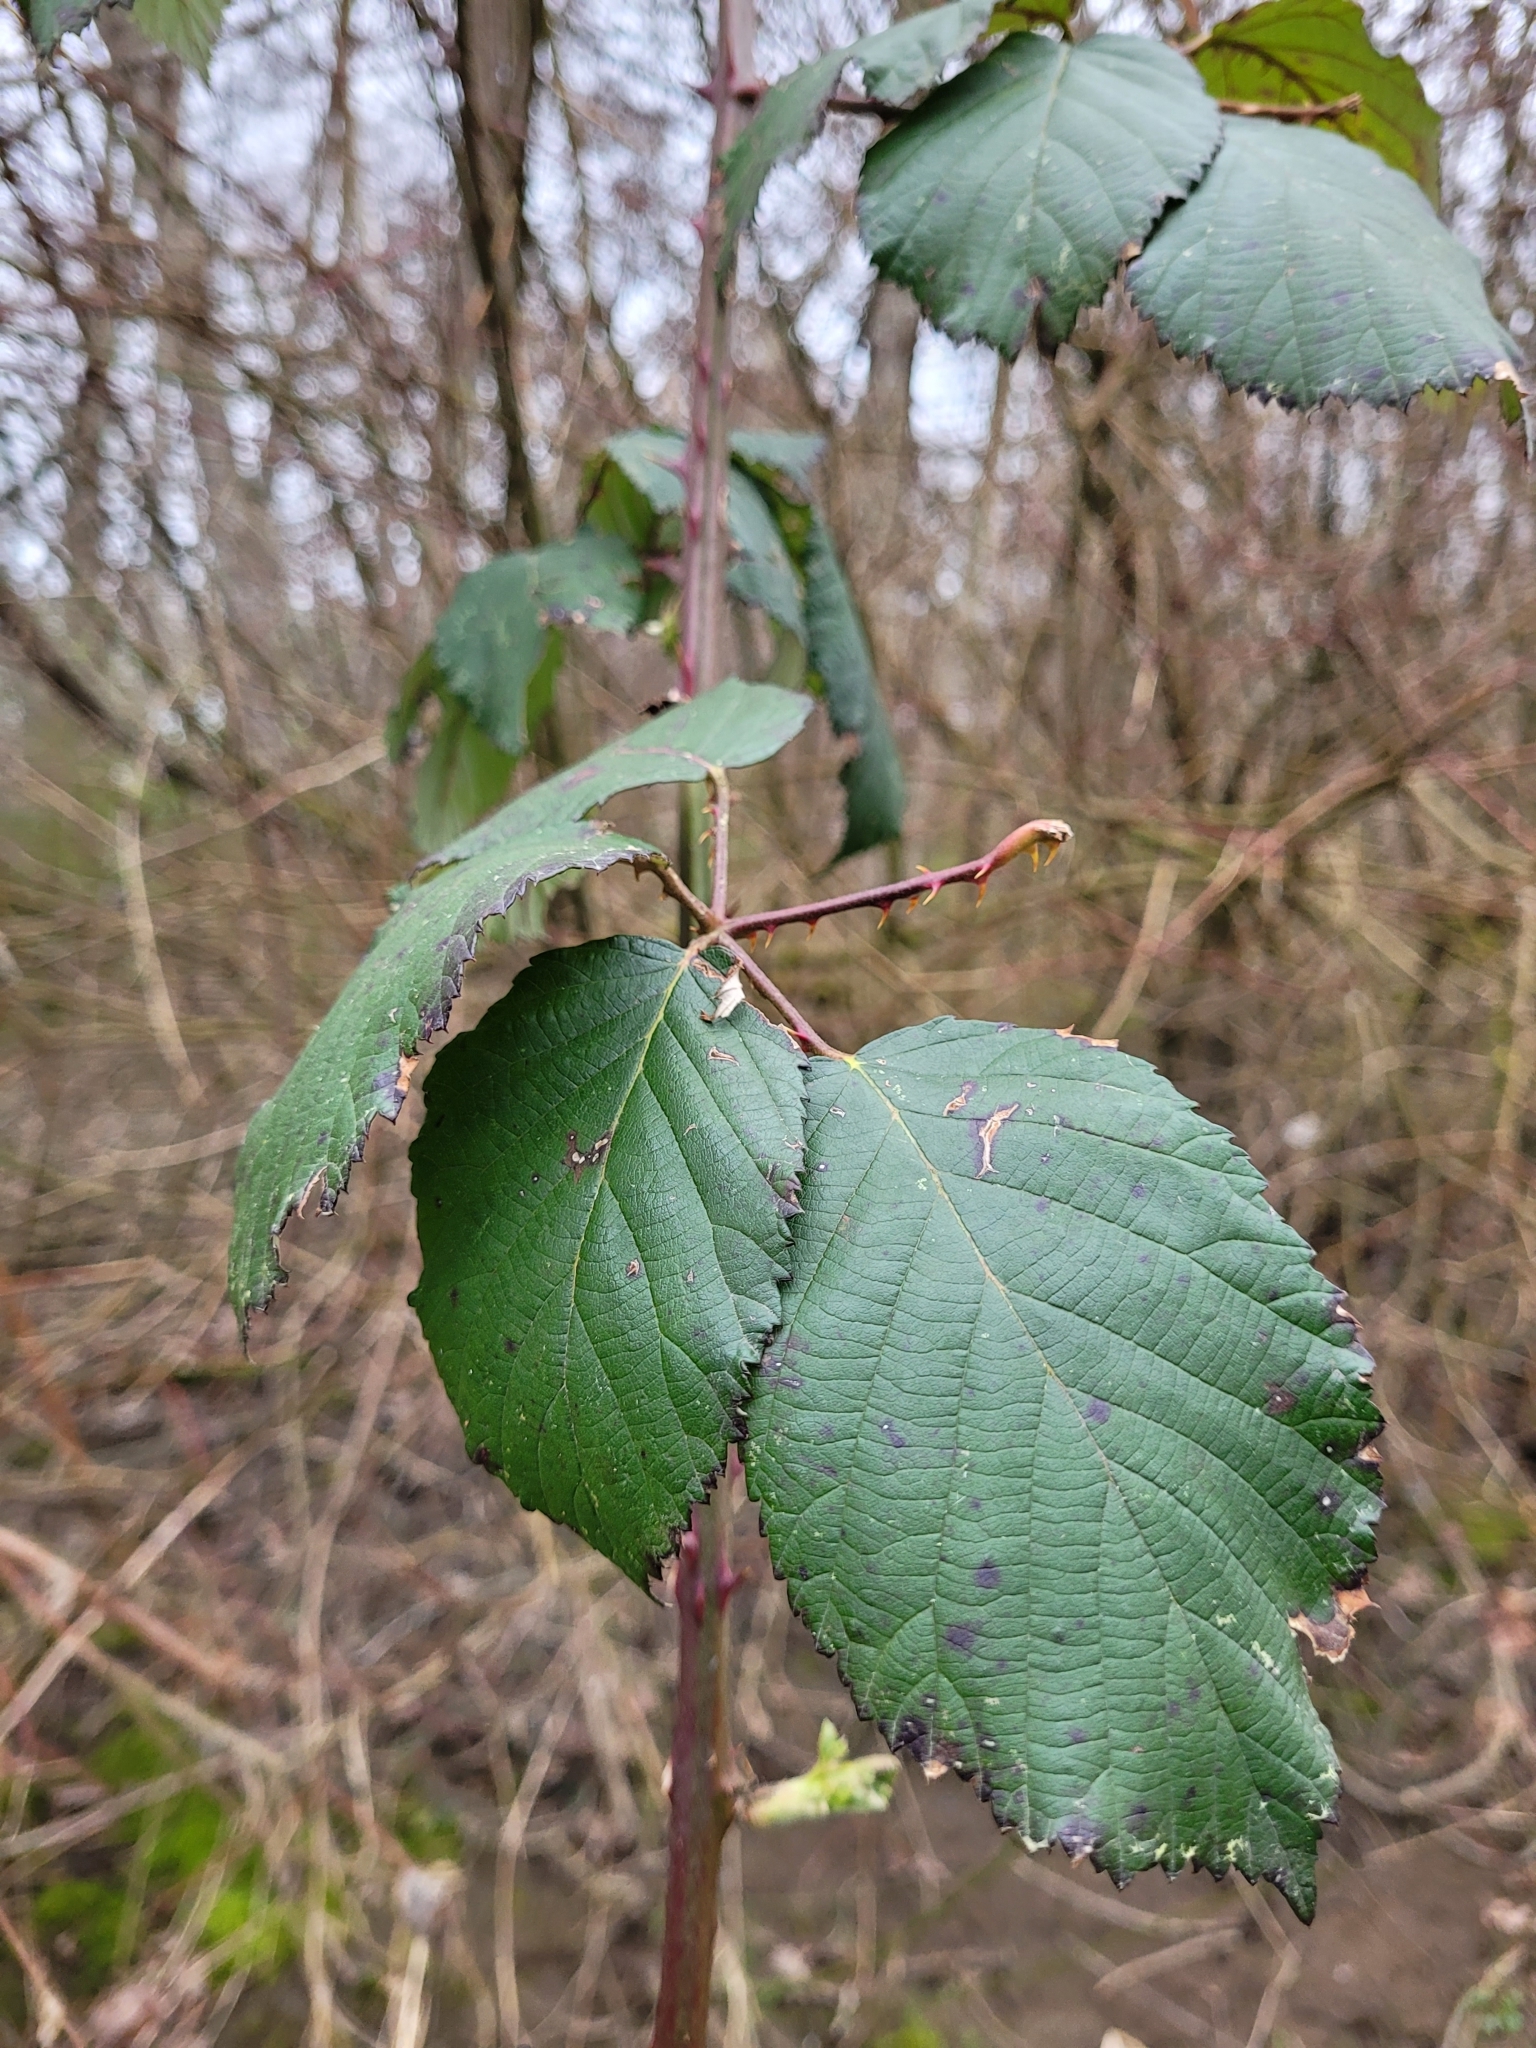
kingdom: Plantae
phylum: Tracheophyta
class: Magnoliopsida
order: Rosales
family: Rosaceae
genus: Rubus
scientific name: Rubus armeniacus
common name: Himalayan blackberry
